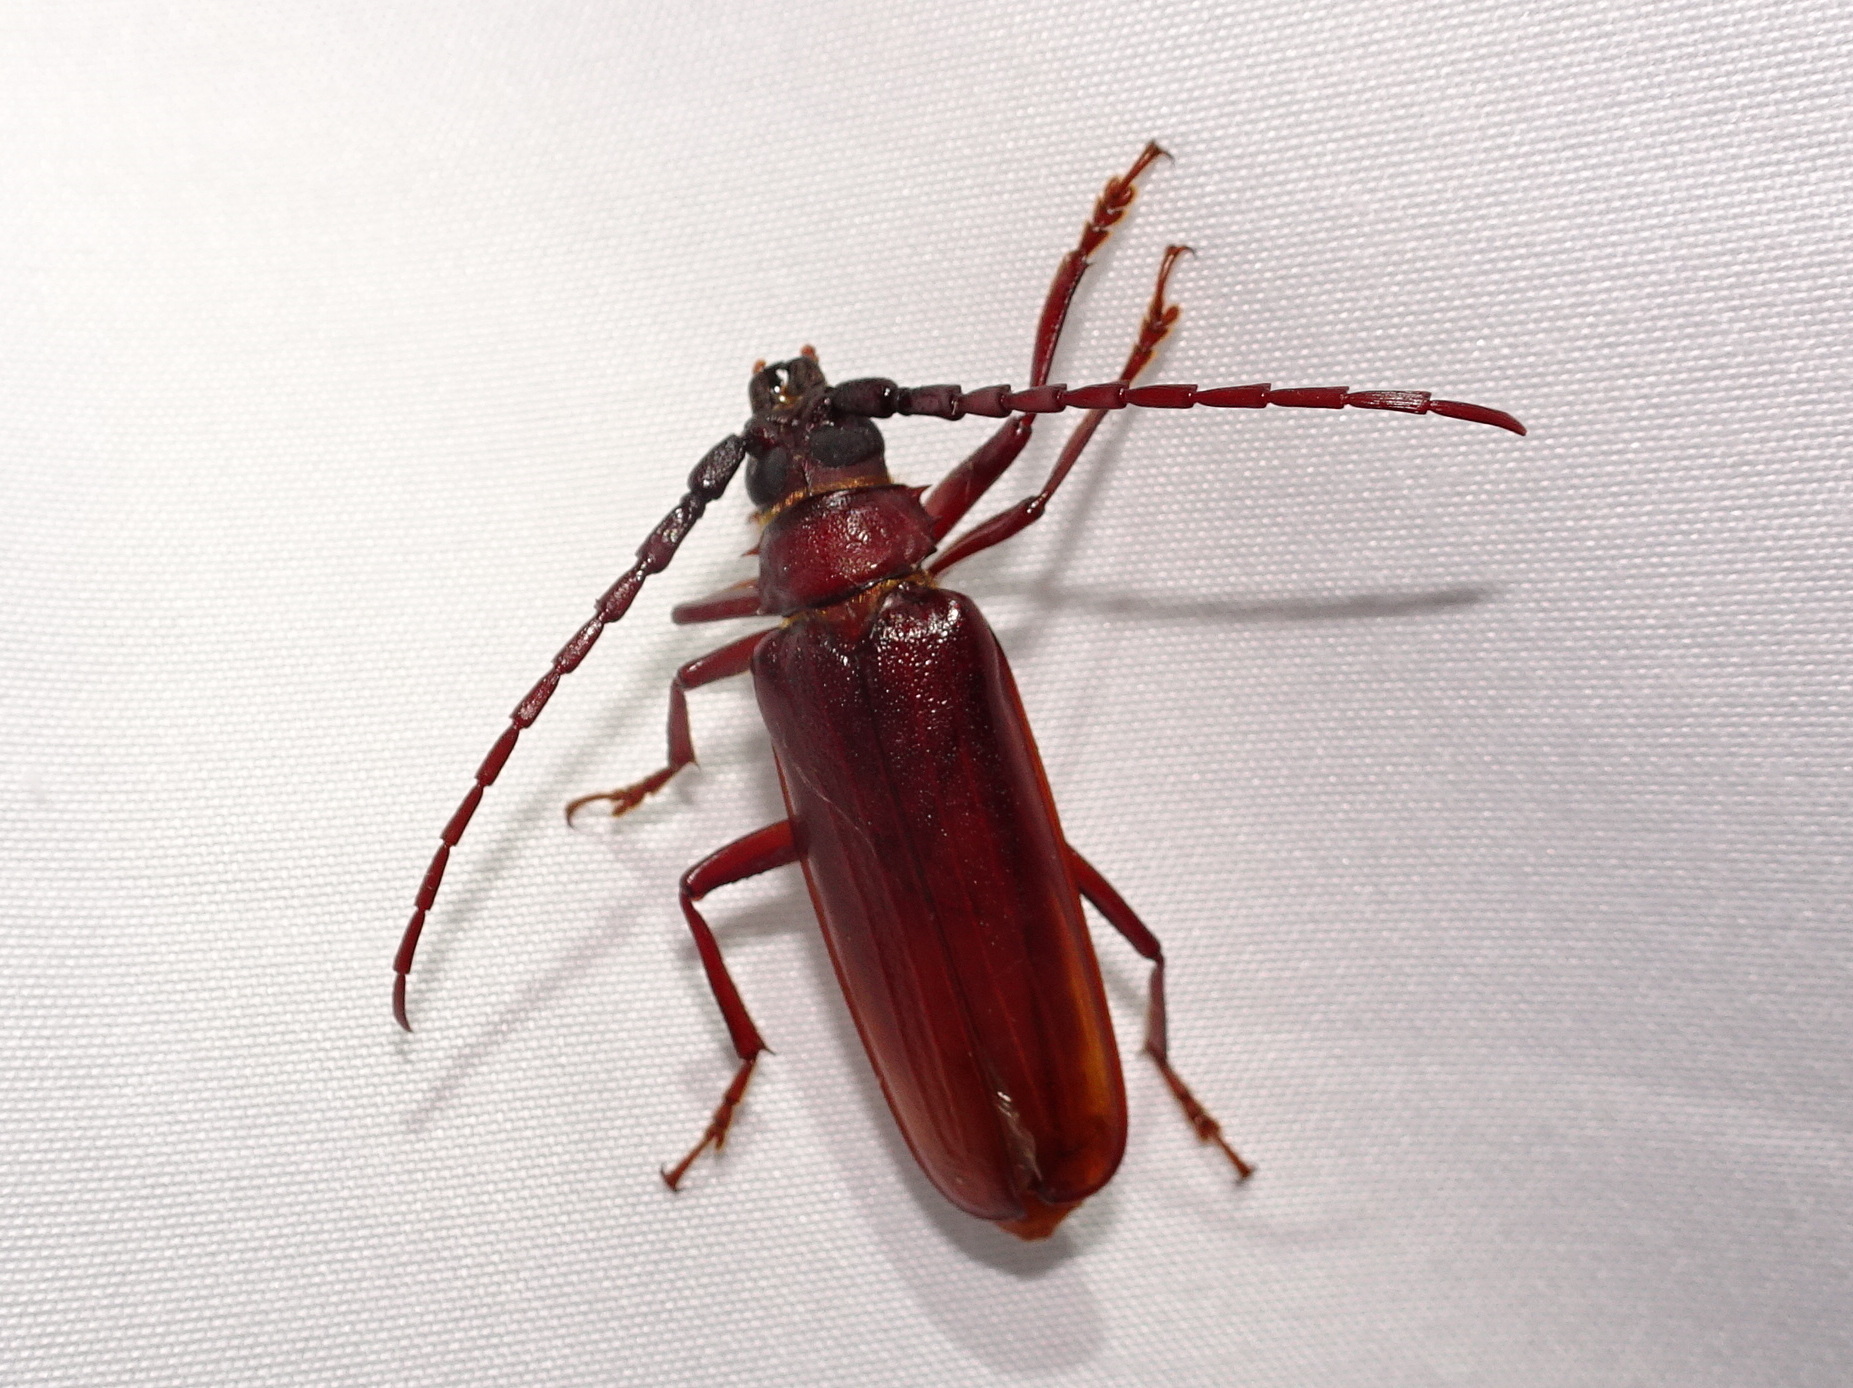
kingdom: Animalia
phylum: Arthropoda
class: Insecta
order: Coleoptera
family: Cerambycidae
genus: Orthosoma
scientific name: Orthosoma brunneum
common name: Brown prionid beetle
